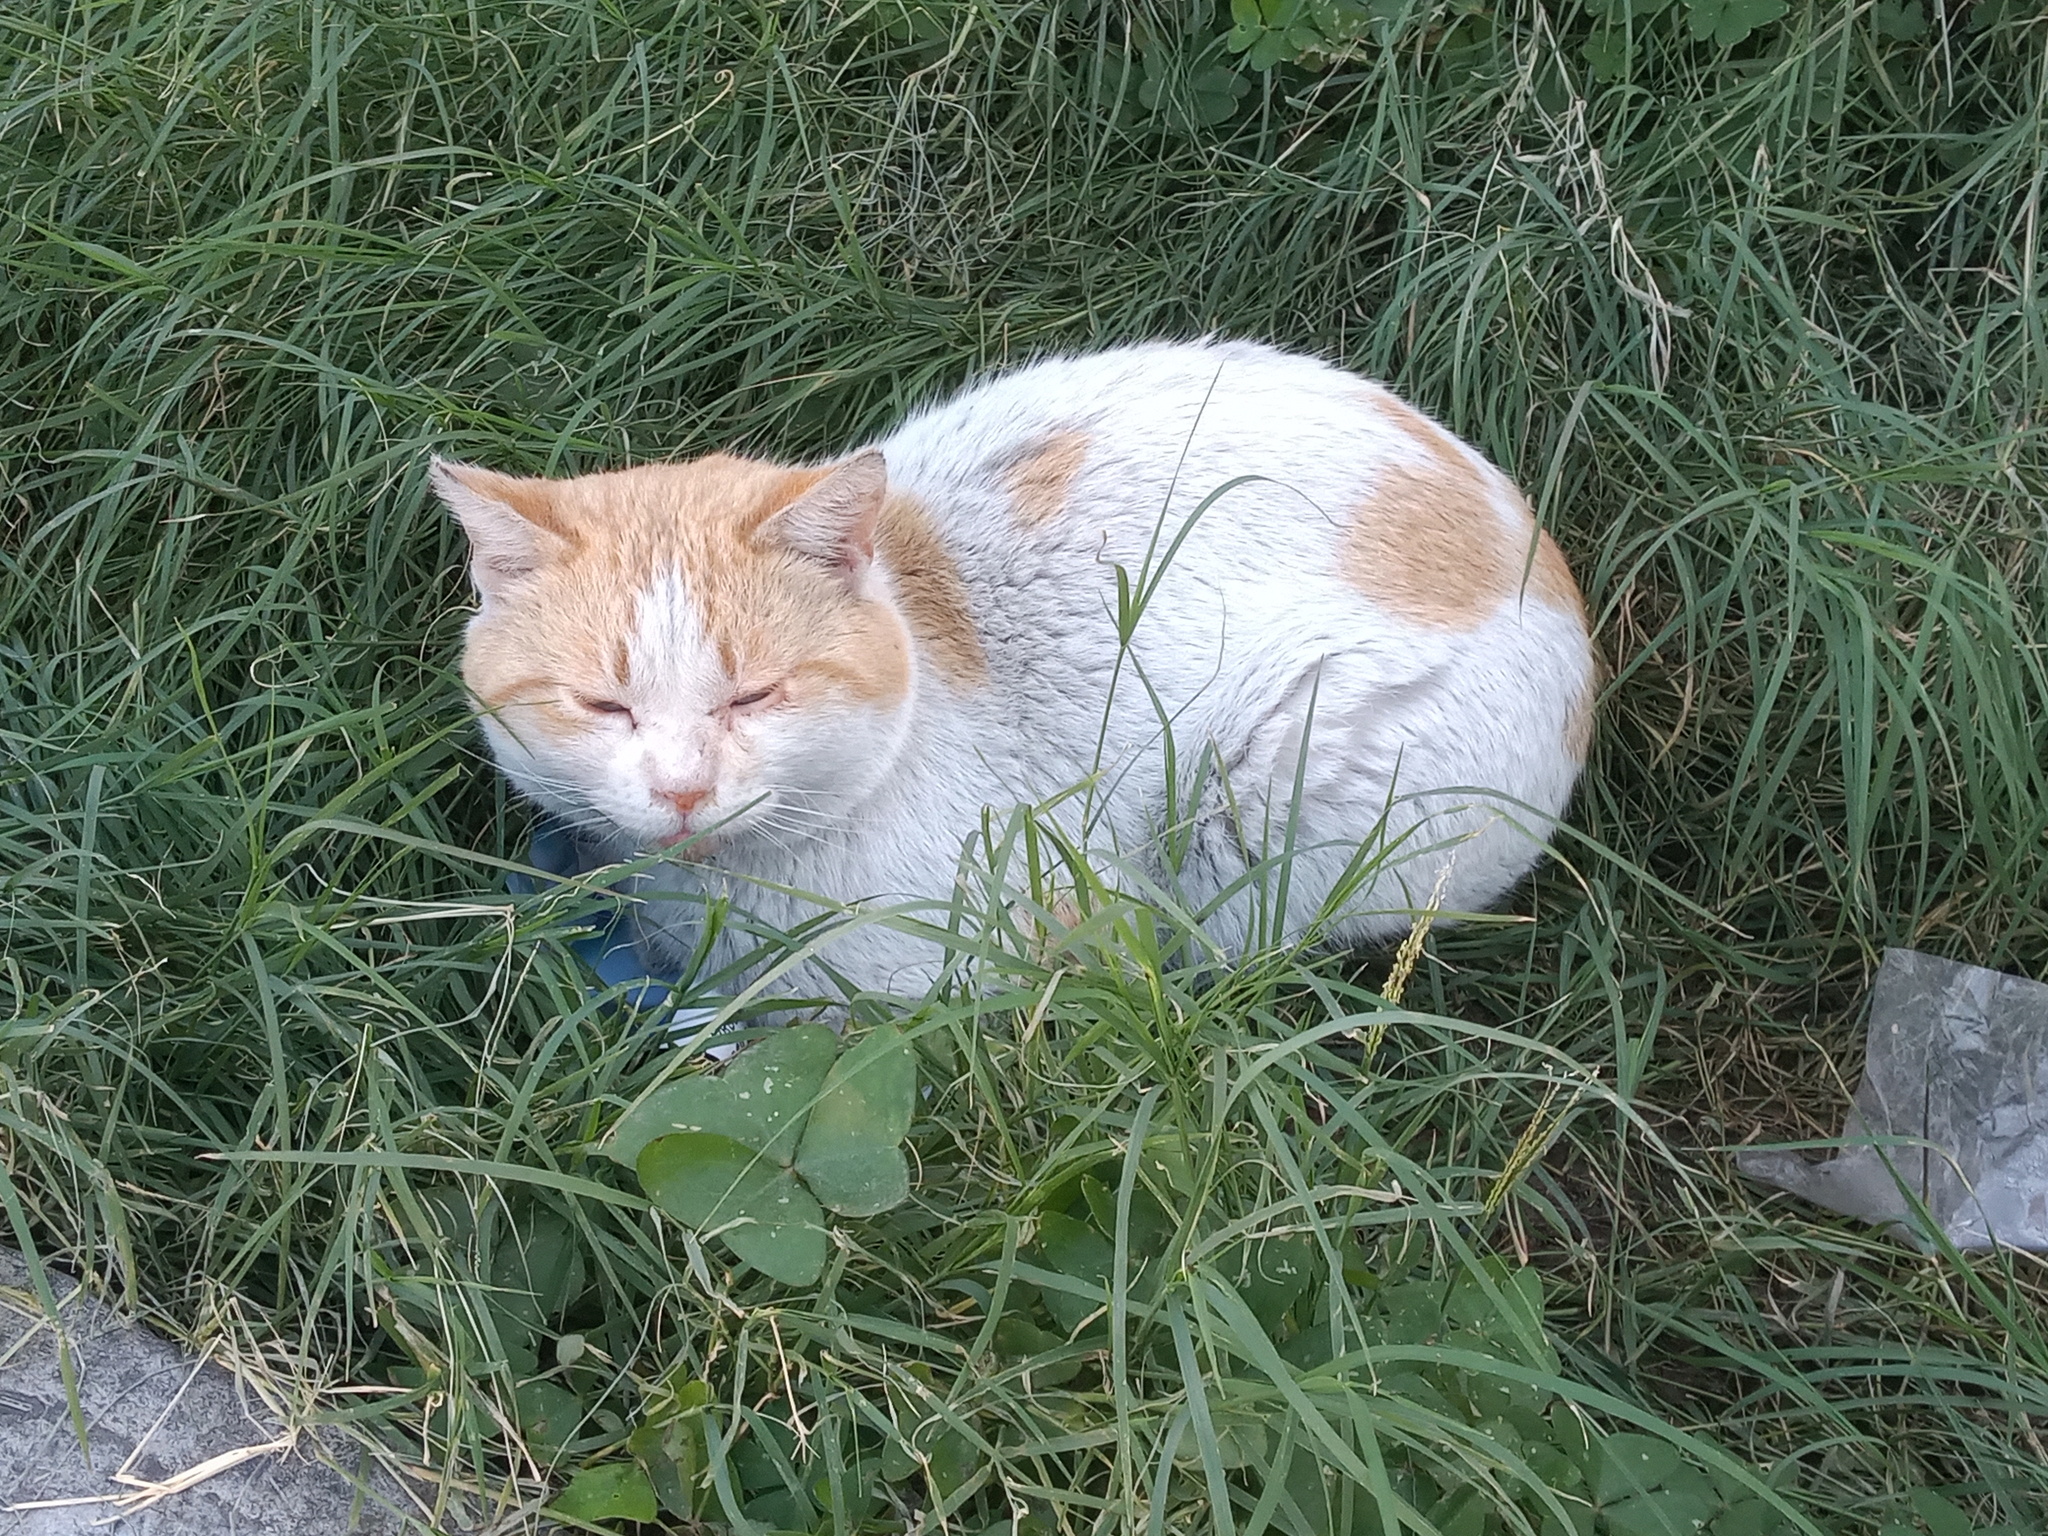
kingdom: Animalia
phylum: Chordata
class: Mammalia
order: Carnivora
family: Felidae
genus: Felis
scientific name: Felis catus
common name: Domestic cat
